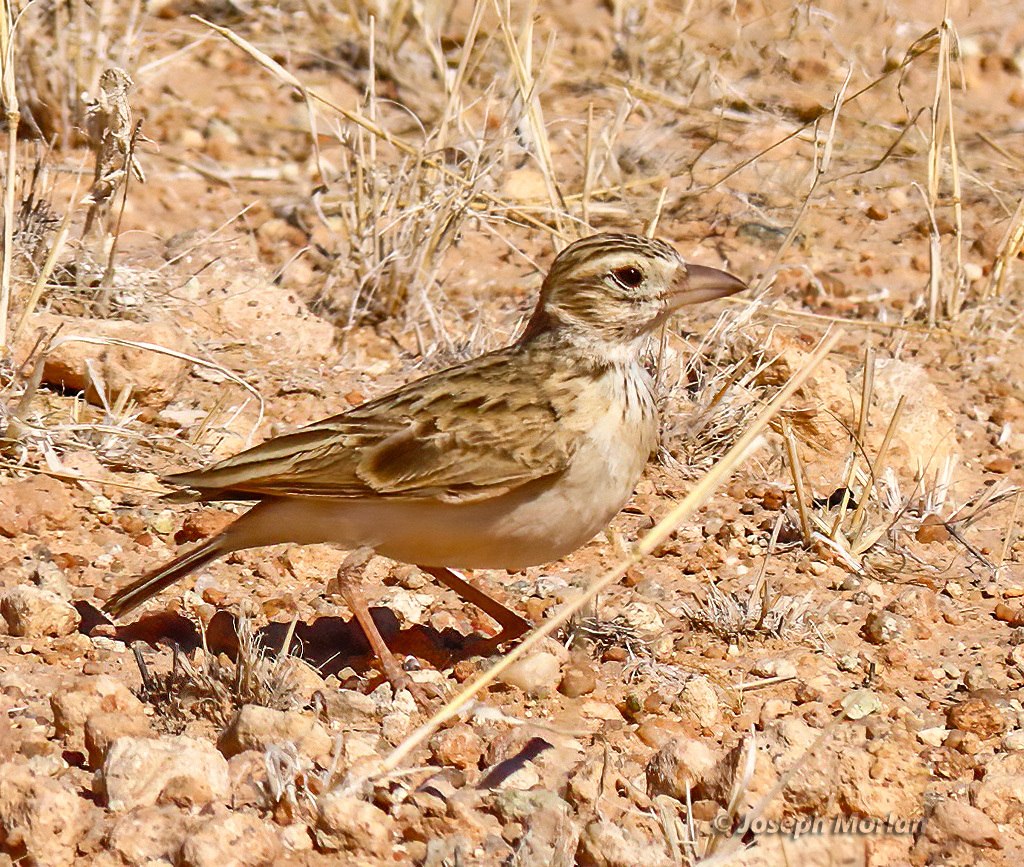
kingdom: Animalia
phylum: Chordata
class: Aves
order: Passeriformes
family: Alaudidae
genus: Spizocorys
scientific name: Spizocorys starki
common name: Stark's lark
